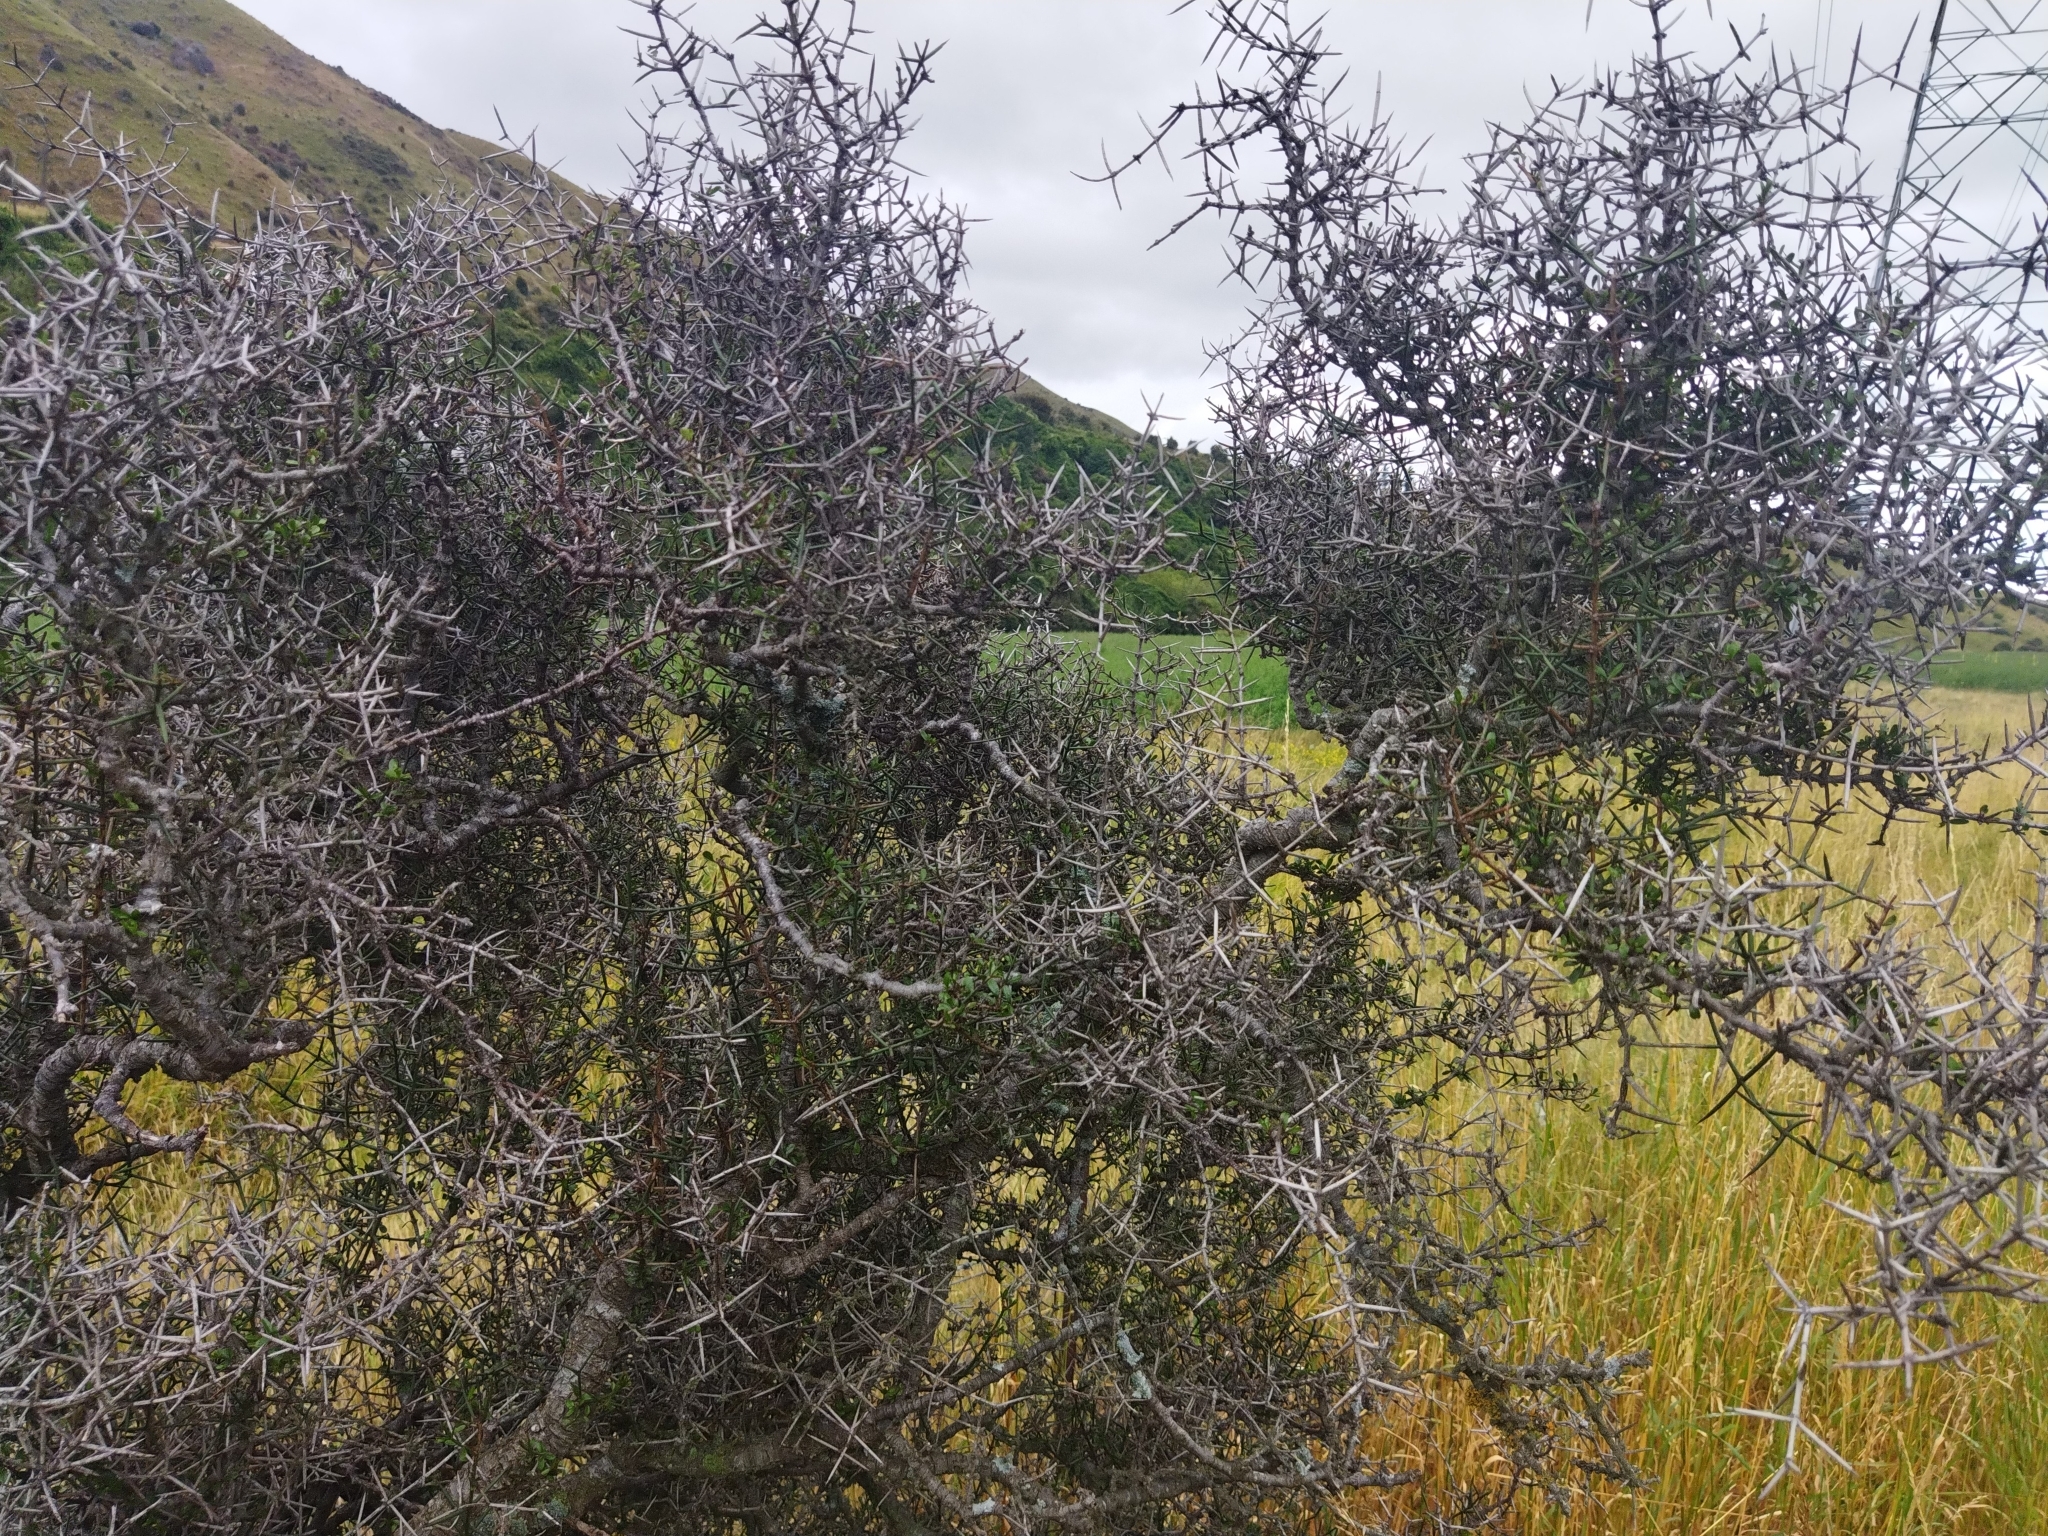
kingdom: Plantae
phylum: Tracheophyta
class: Magnoliopsida
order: Rosales
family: Rhamnaceae
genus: Discaria
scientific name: Discaria toumatou
